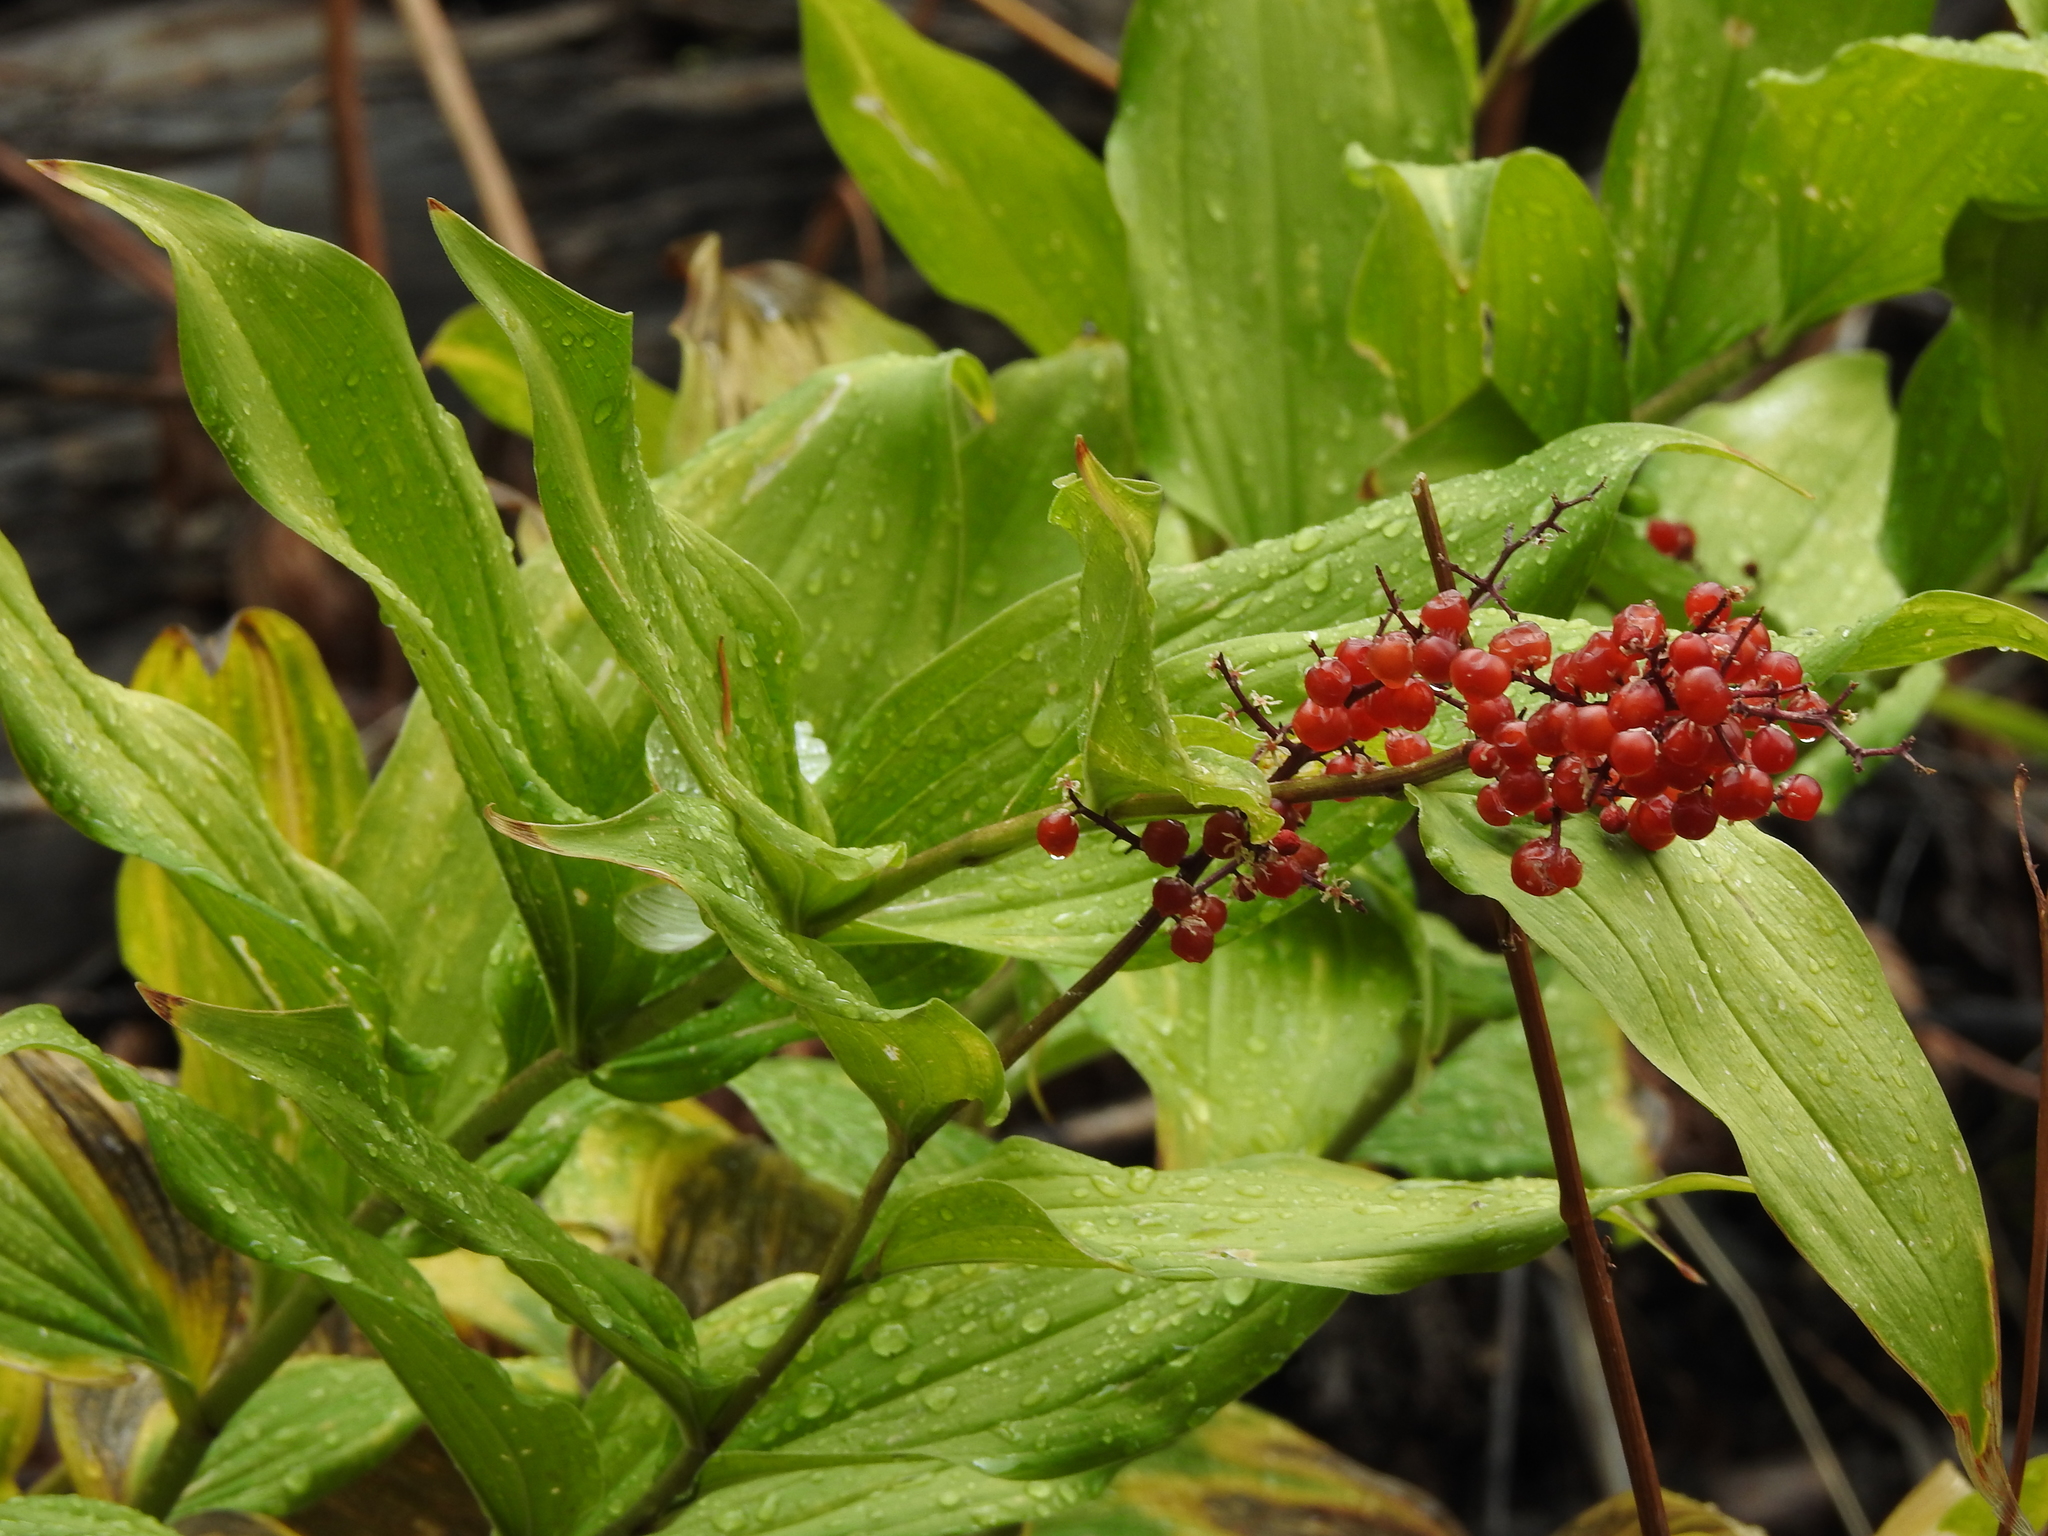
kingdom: Plantae
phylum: Tracheophyta
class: Liliopsida
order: Asparagales
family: Asparagaceae
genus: Maianthemum
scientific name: Maianthemum racemosum
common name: False spikenard
